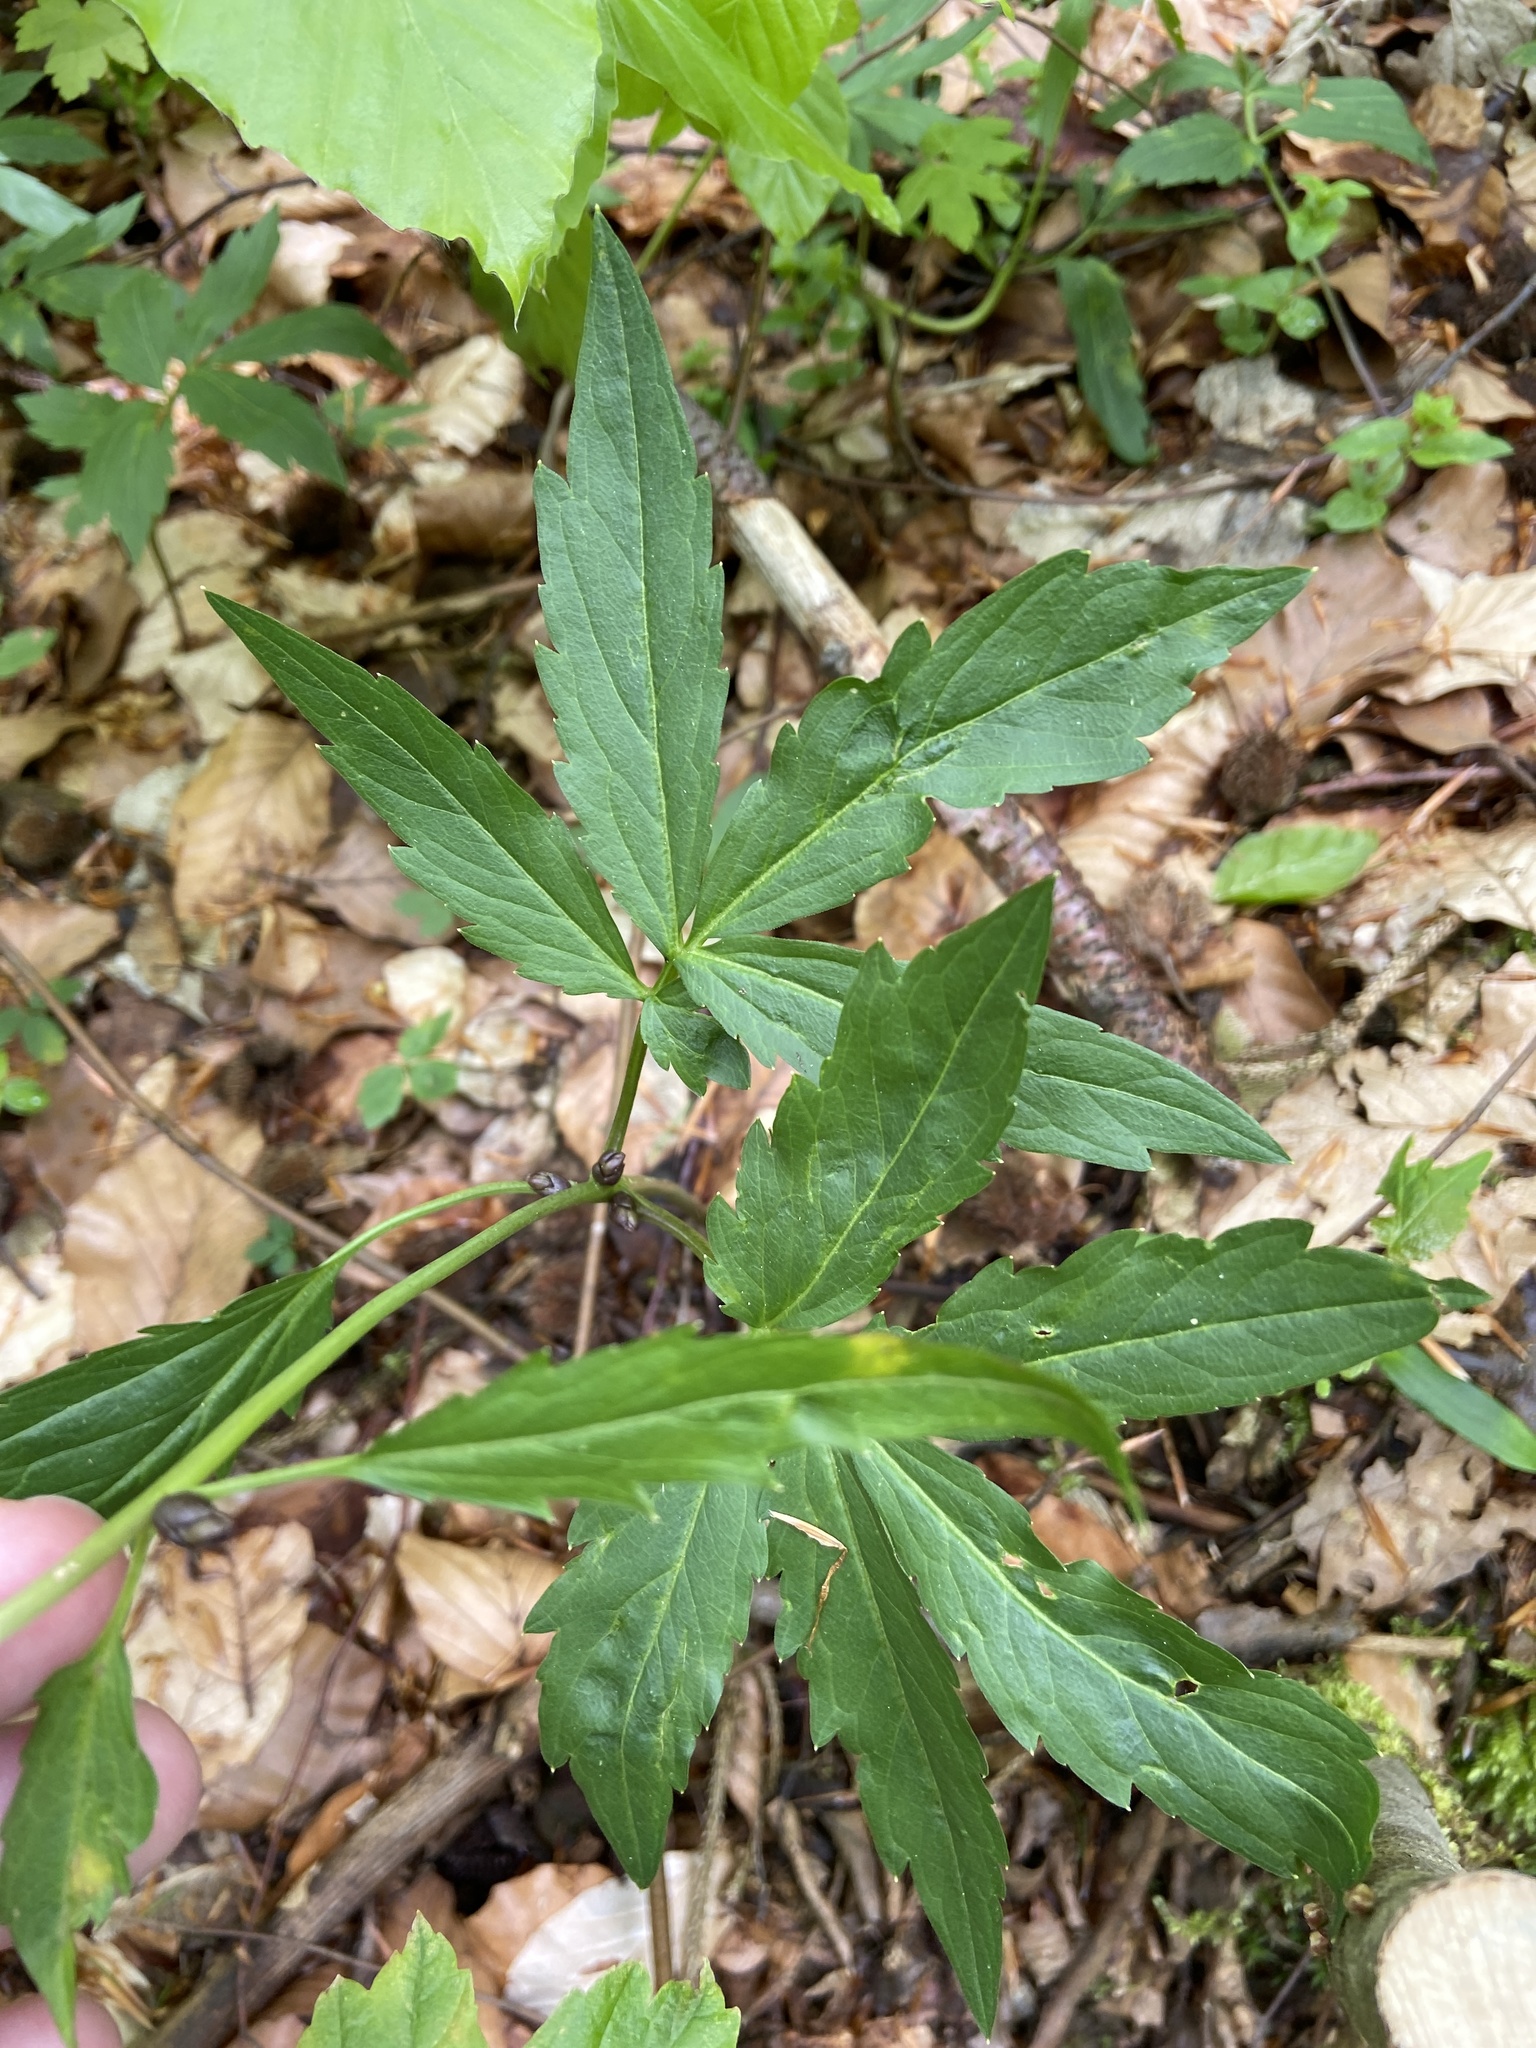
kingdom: Plantae
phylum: Tracheophyta
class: Magnoliopsida
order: Brassicales
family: Brassicaceae
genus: Cardamine
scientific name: Cardamine bulbifera
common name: Coralroot bittercress
